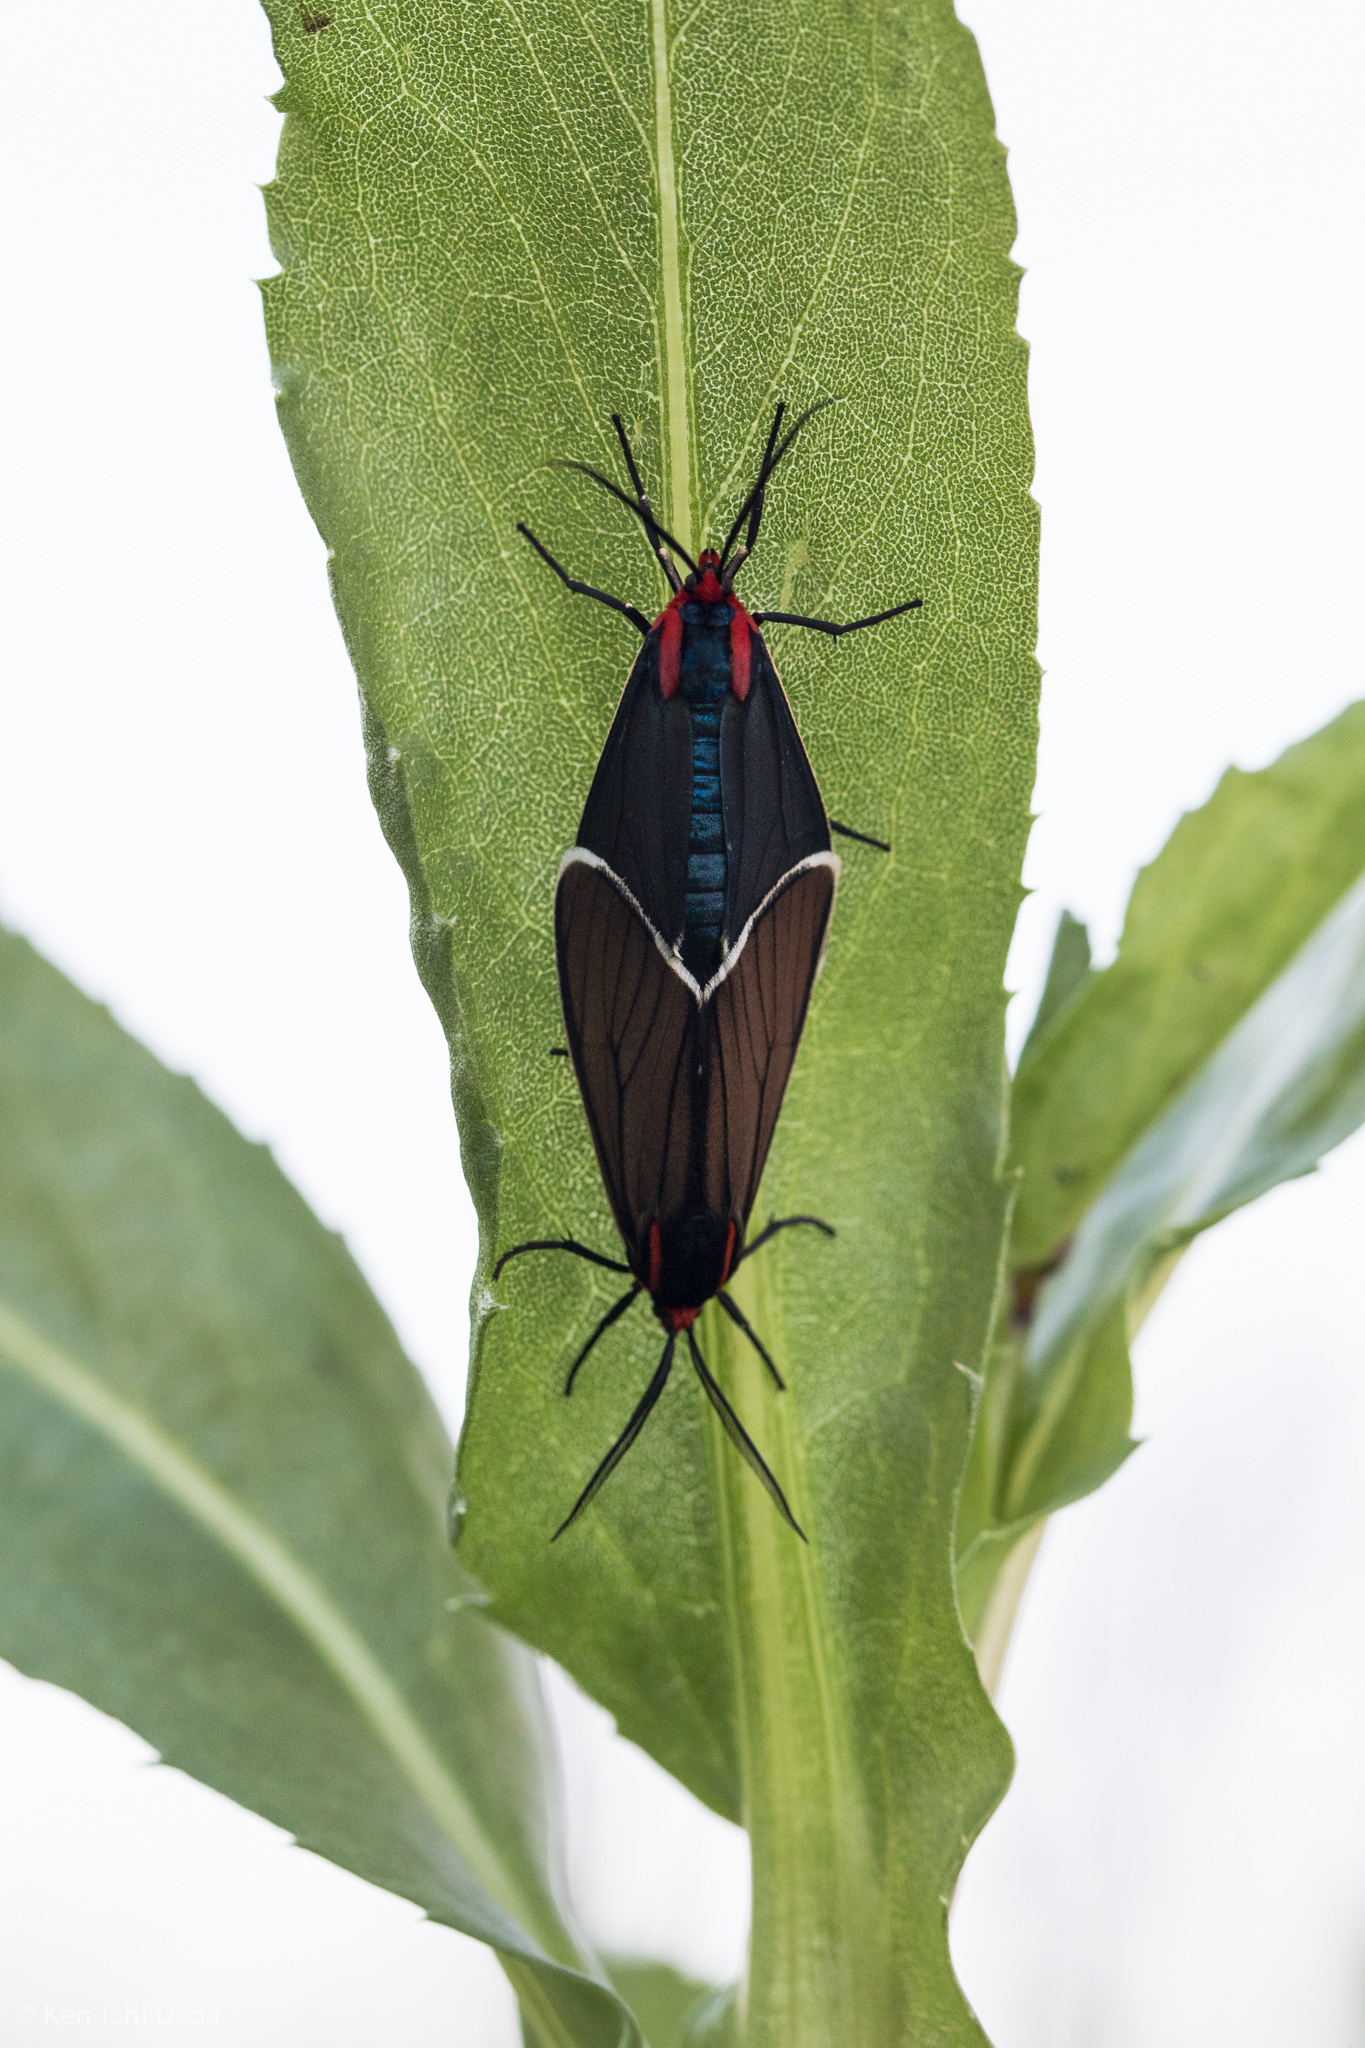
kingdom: Animalia
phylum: Arthropoda
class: Insecta
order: Lepidoptera
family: Erebidae
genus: Ctenucha
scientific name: Ctenucha multifaria
